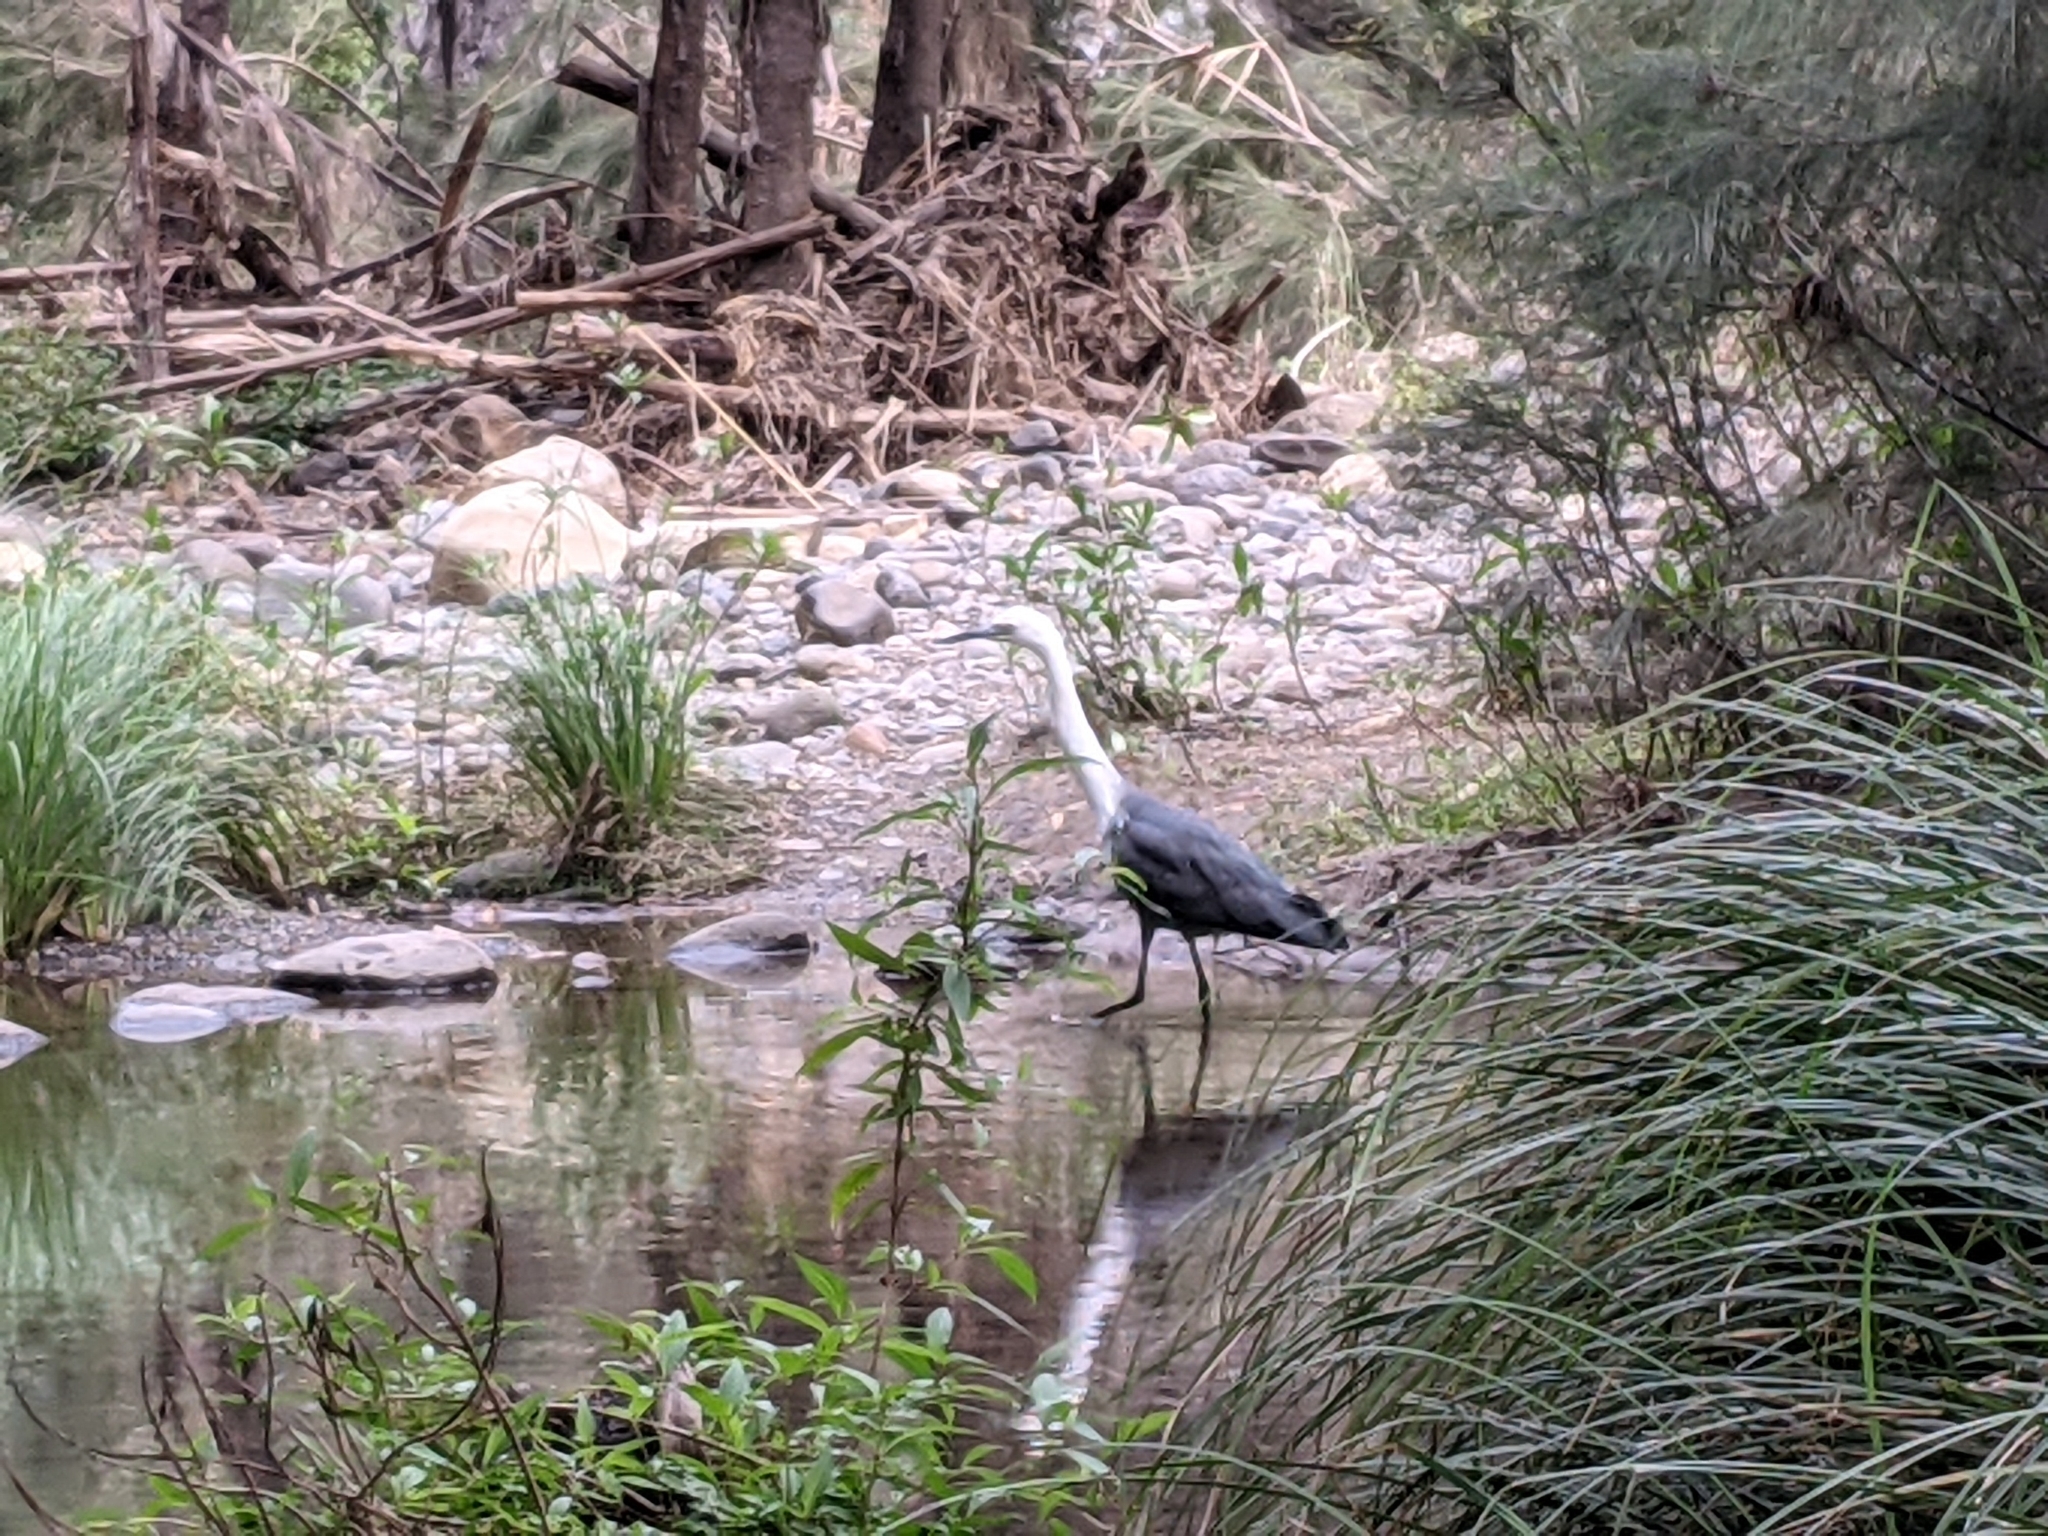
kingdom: Animalia
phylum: Chordata
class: Aves
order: Pelecaniformes
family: Ardeidae
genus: Ardea
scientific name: Ardea pacifica
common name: White-necked heron
